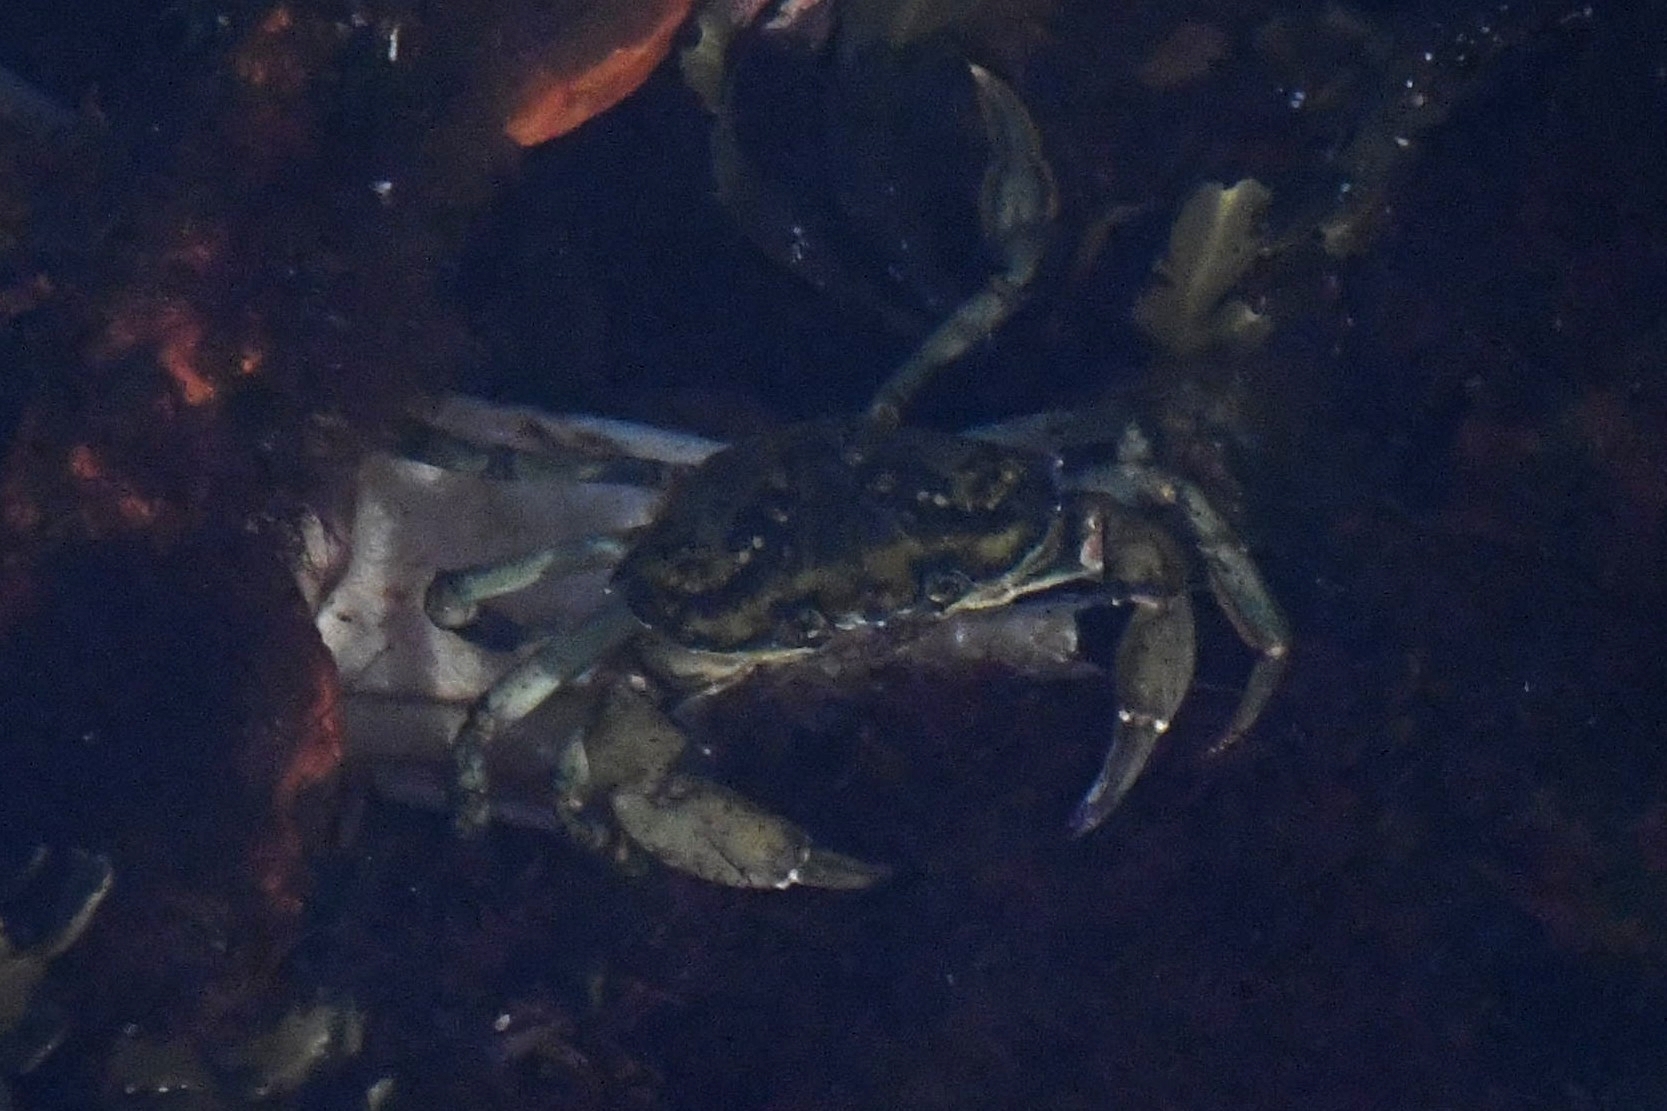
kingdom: Animalia
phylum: Arthropoda
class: Malacostraca
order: Decapoda
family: Carcinidae
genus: Carcinus
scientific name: Carcinus maenas
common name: European green crab
